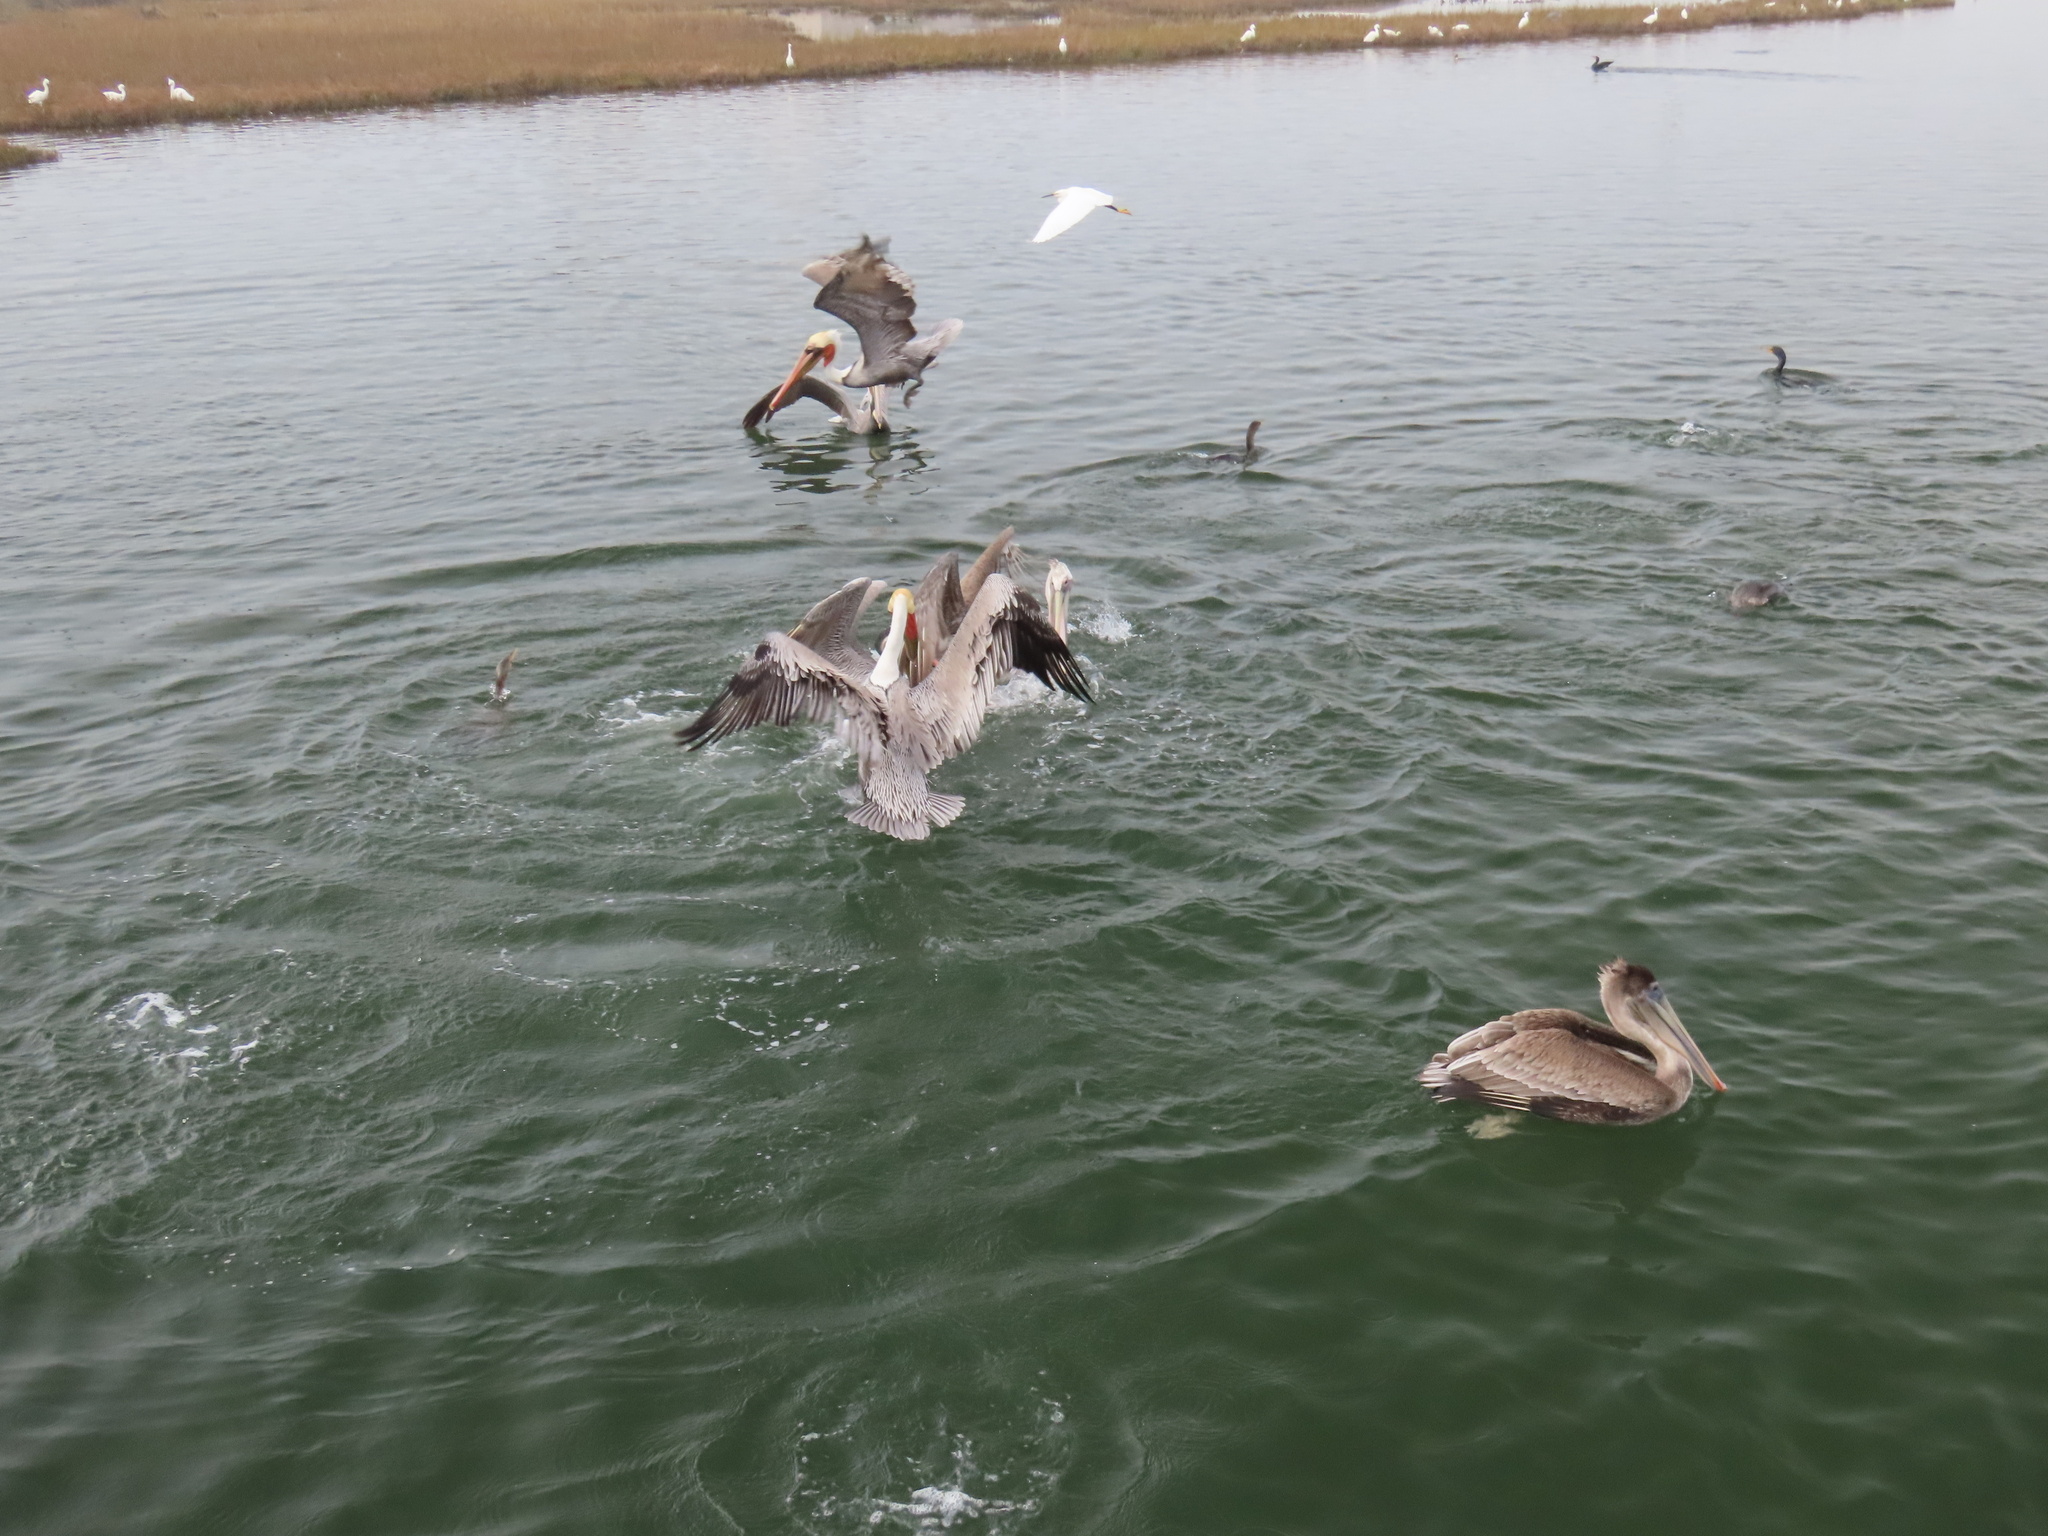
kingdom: Animalia
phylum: Chordata
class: Aves
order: Pelecaniformes
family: Pelecanidae
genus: Pelecanus
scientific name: Pelecanus occidentalis
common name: Brown pelican
